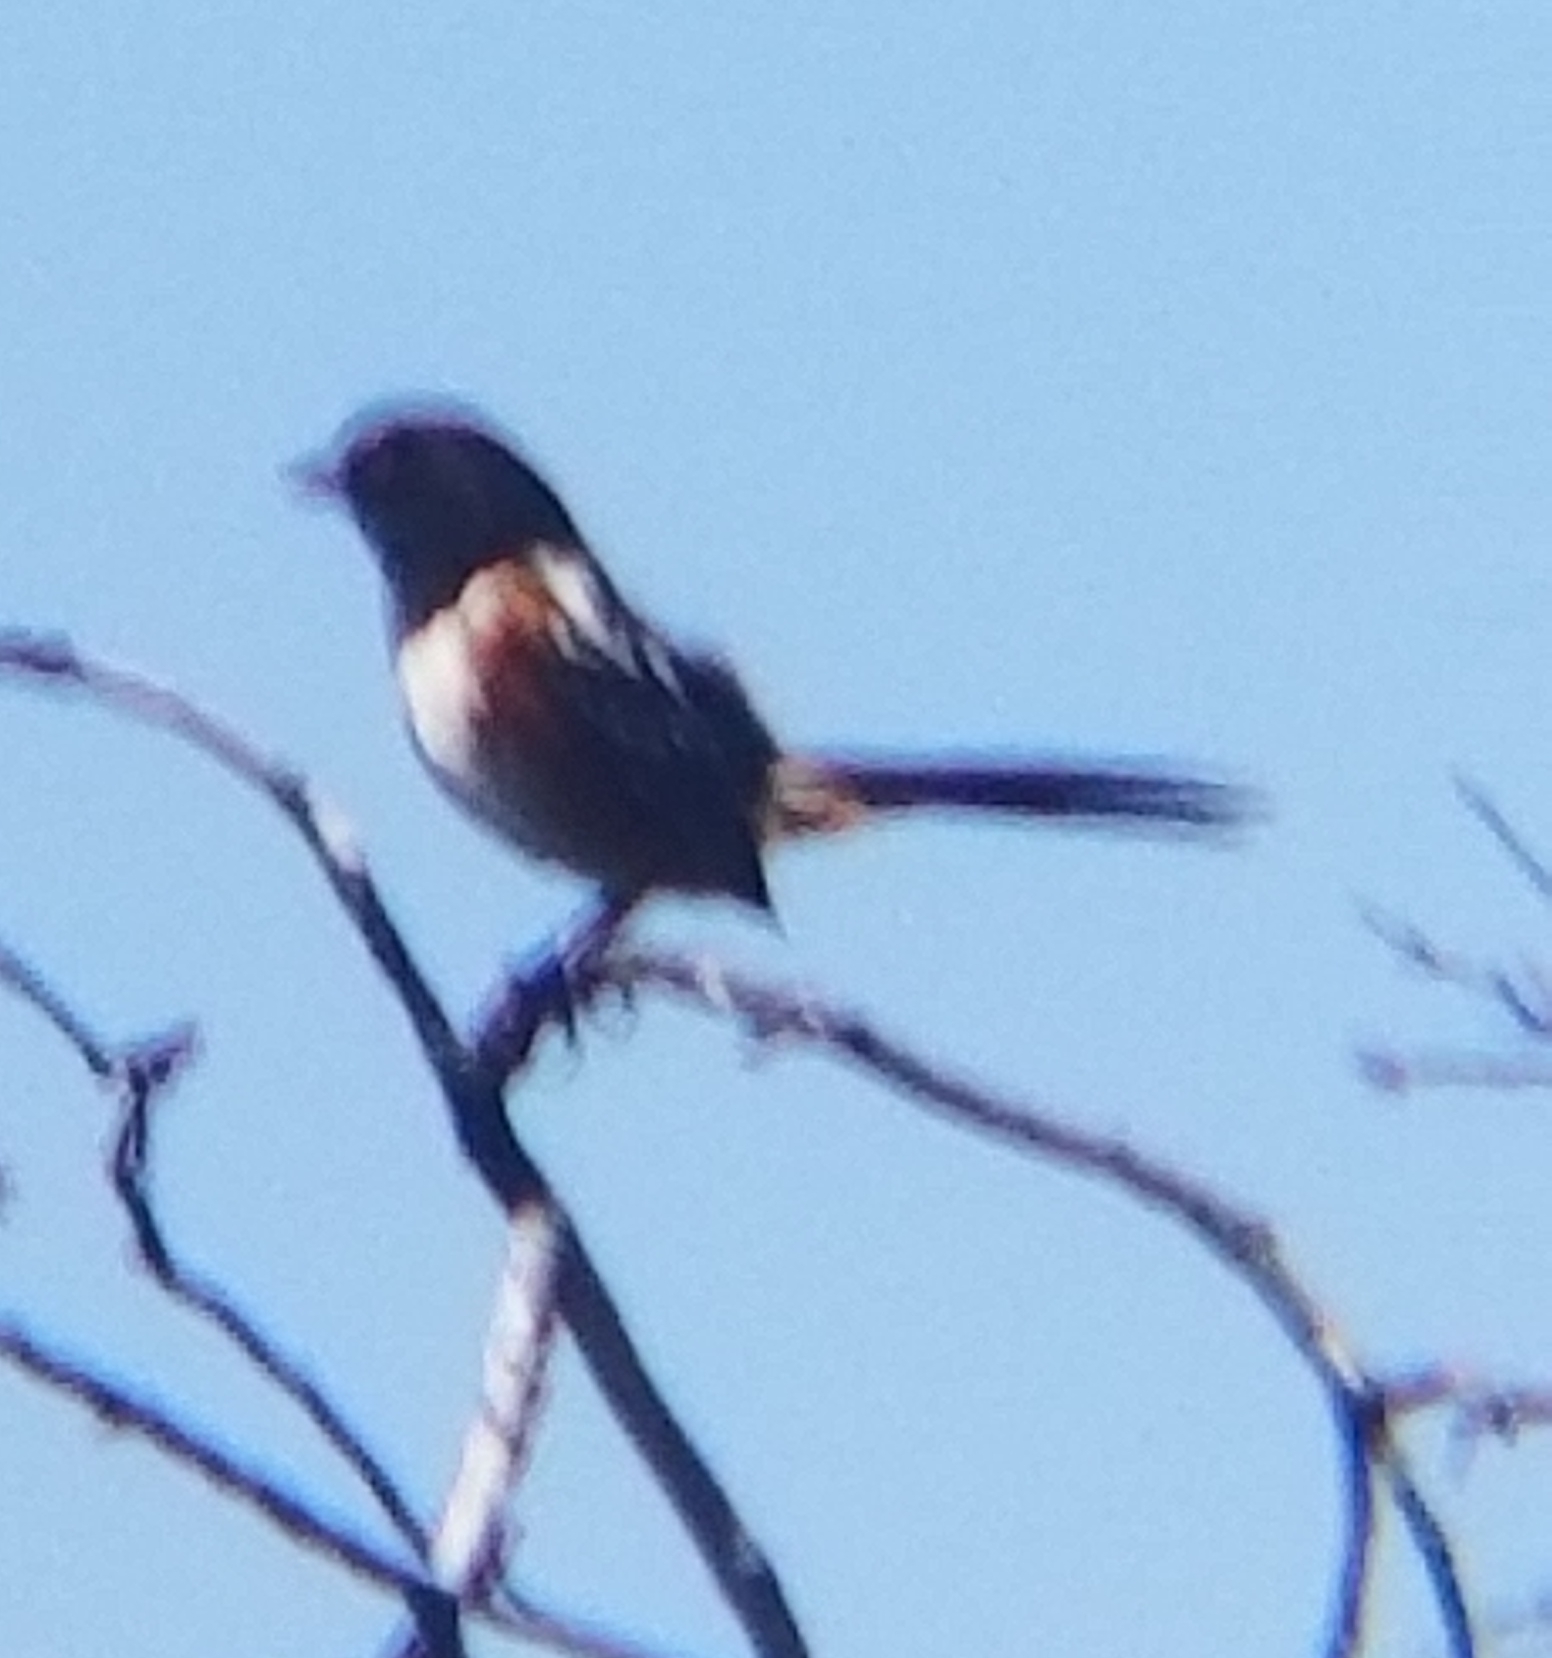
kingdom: Animalia
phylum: Chordata
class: Aves
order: Passeriformes
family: Passerellidae
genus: Pipilo
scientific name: Pipilo maculatus
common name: Spotted towhee
